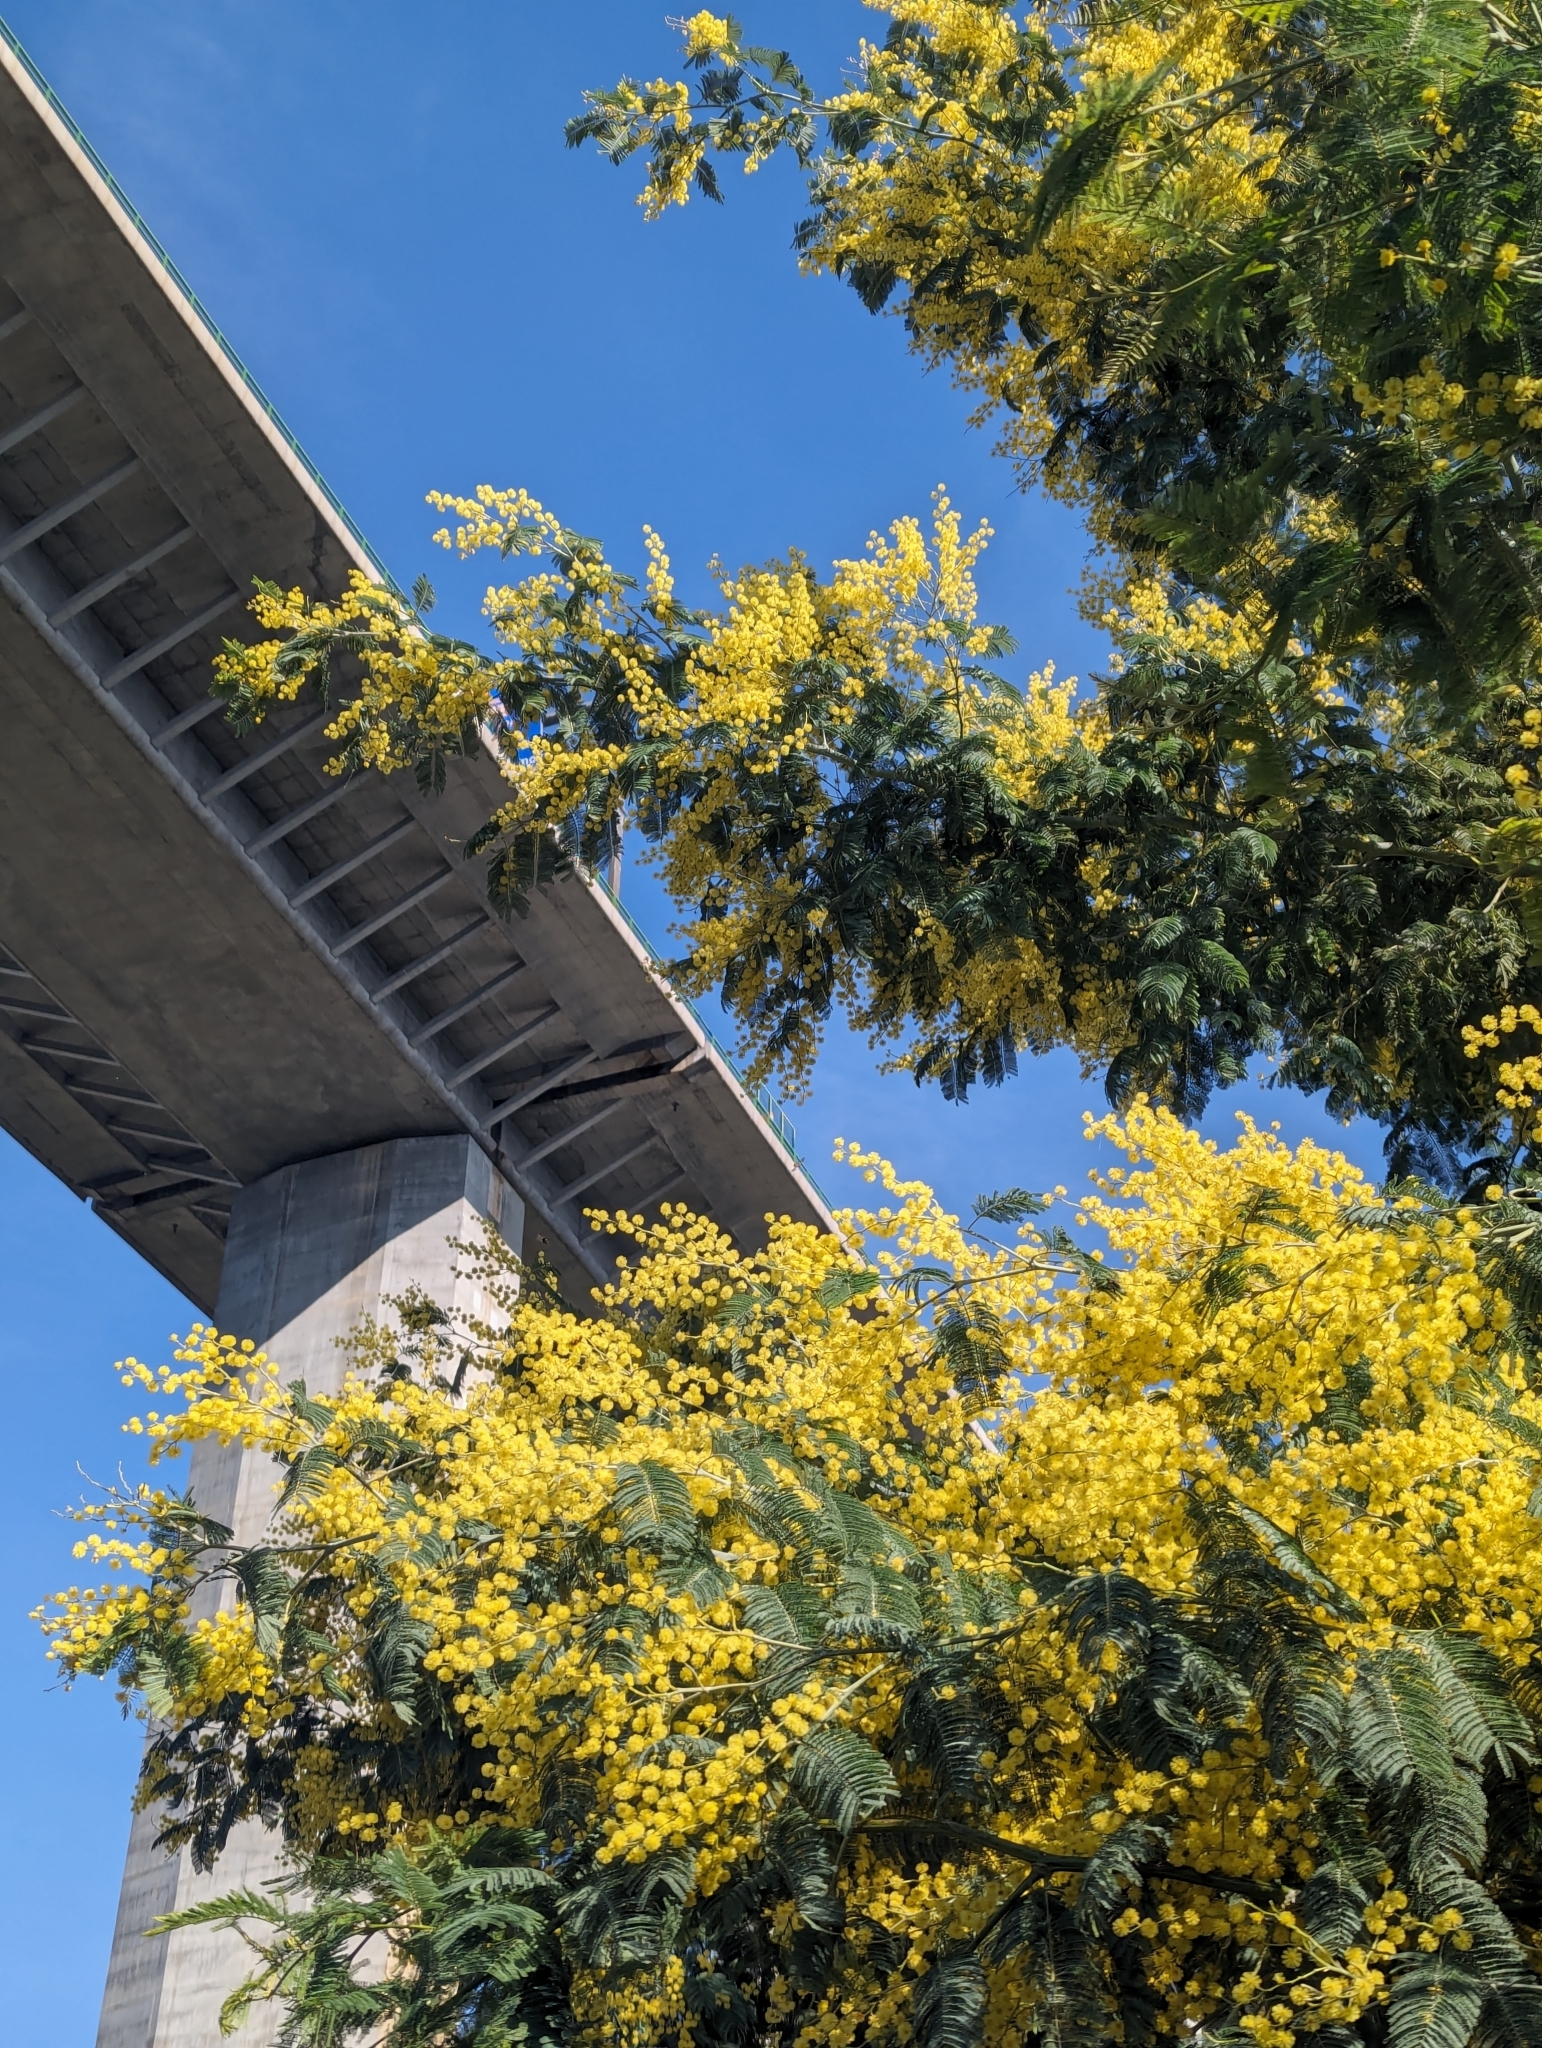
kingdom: Plantae
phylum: Tracheophyta
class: Magnoliopsida
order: Fabales
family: Fabaceae
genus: Acacia
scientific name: Acacia dealbata
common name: Silver wattle
